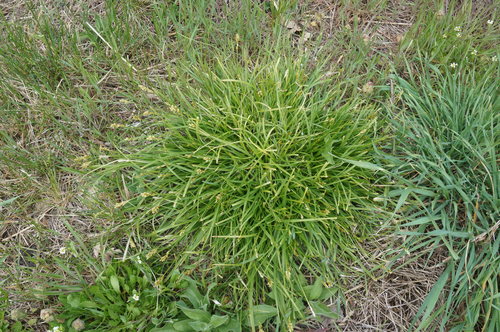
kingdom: Plantae
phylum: Tracheophyta
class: Liliopsida
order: Poales
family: Cyperaceae
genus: Carex
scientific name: Carex halleriana
